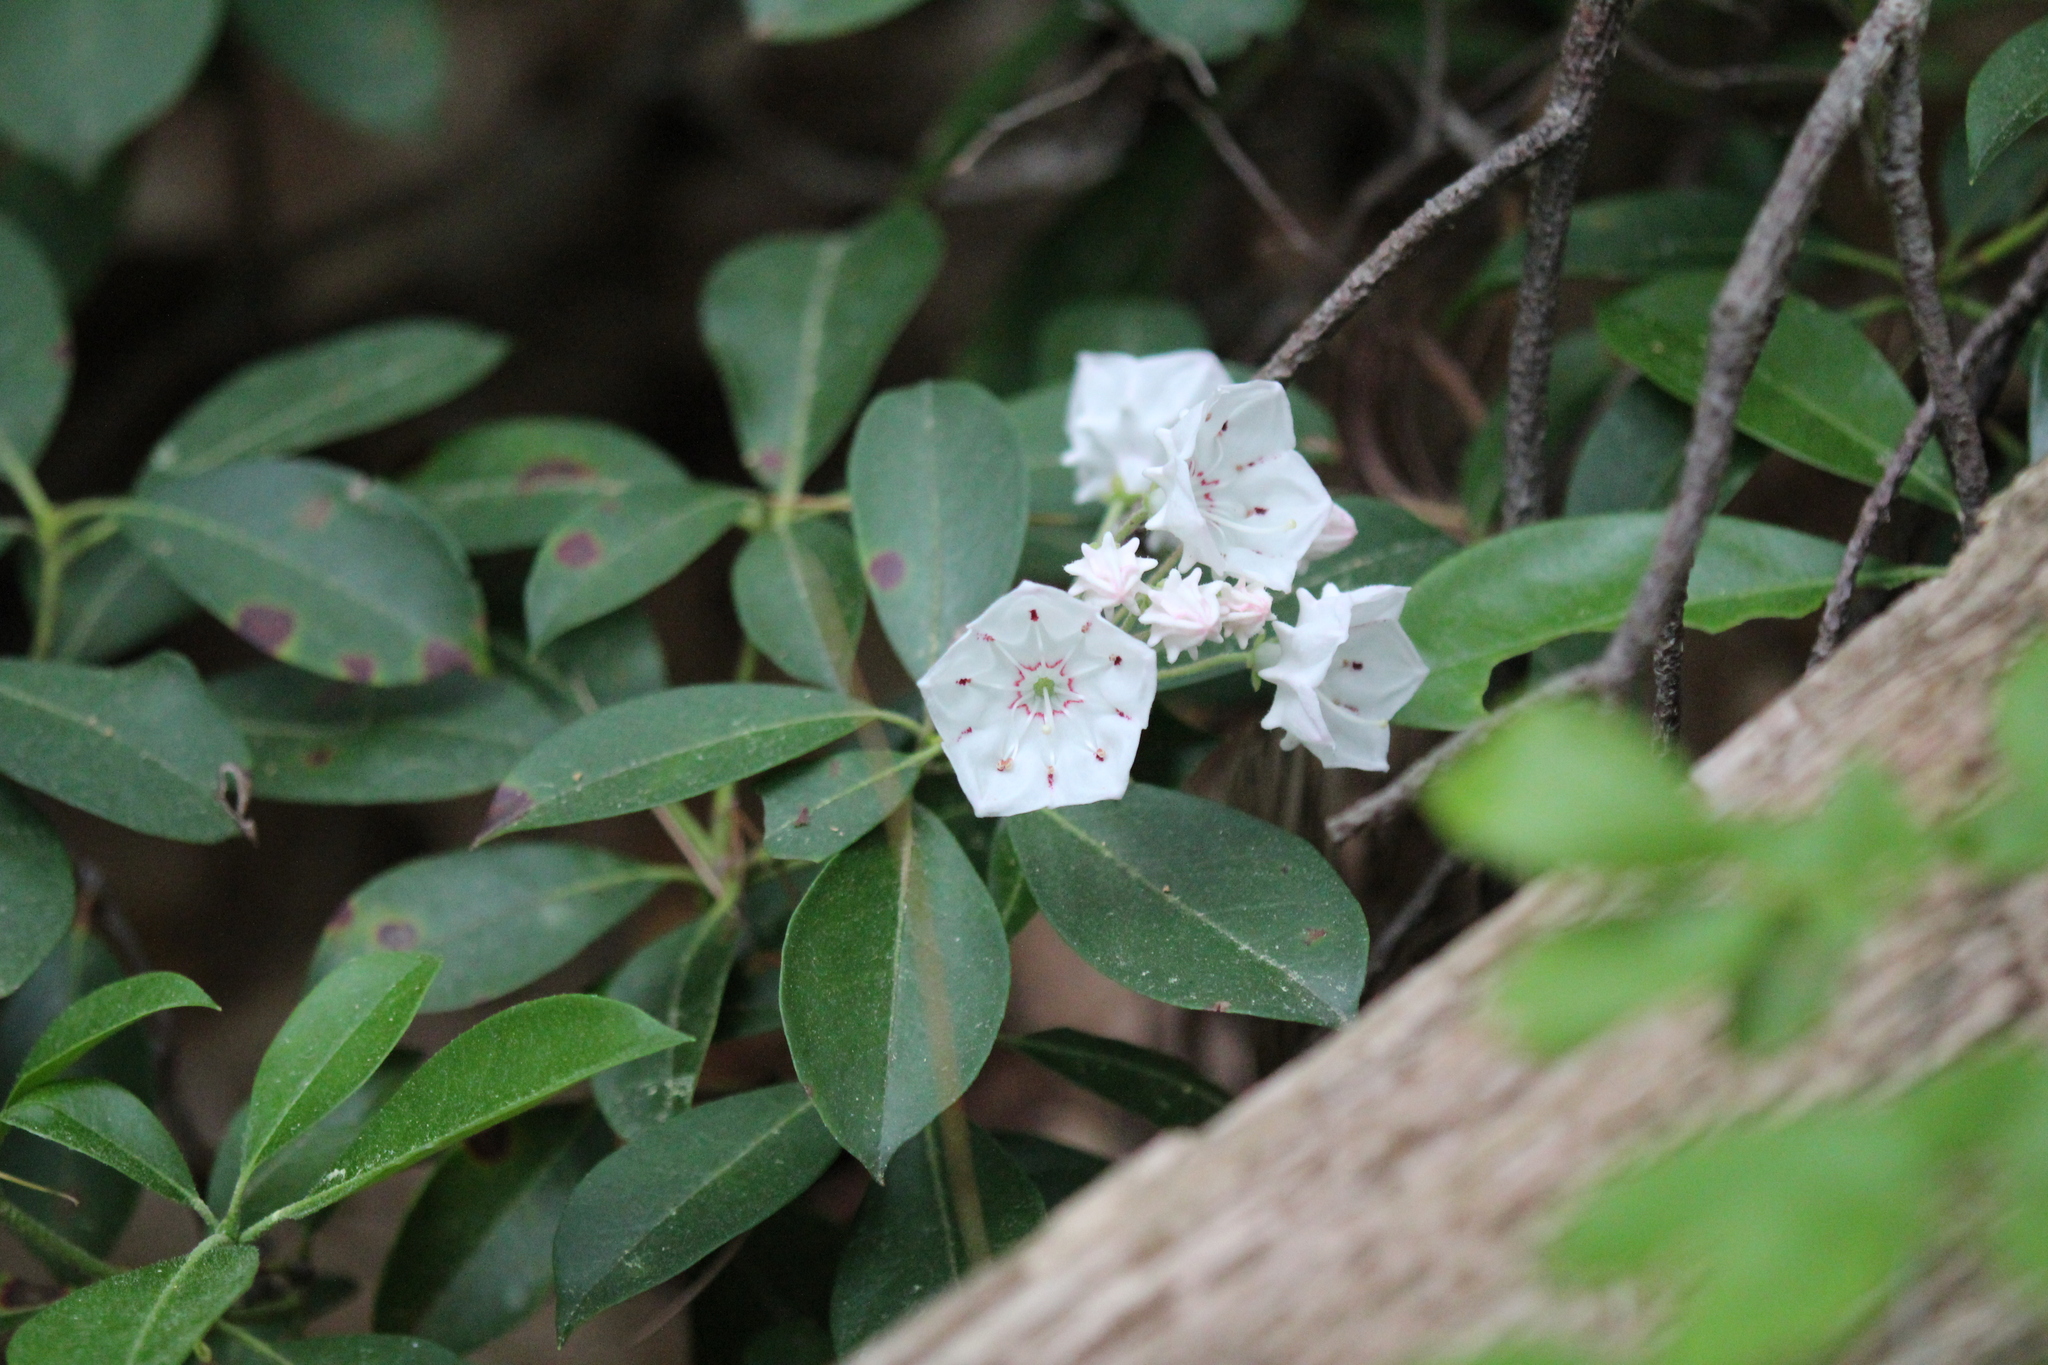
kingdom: Plantae
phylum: Tracheophyta
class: Magnoliopsida
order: Ericales
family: Ericaceae
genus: Kalmia
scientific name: Kalmia latifolia
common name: Mountain-laurel
